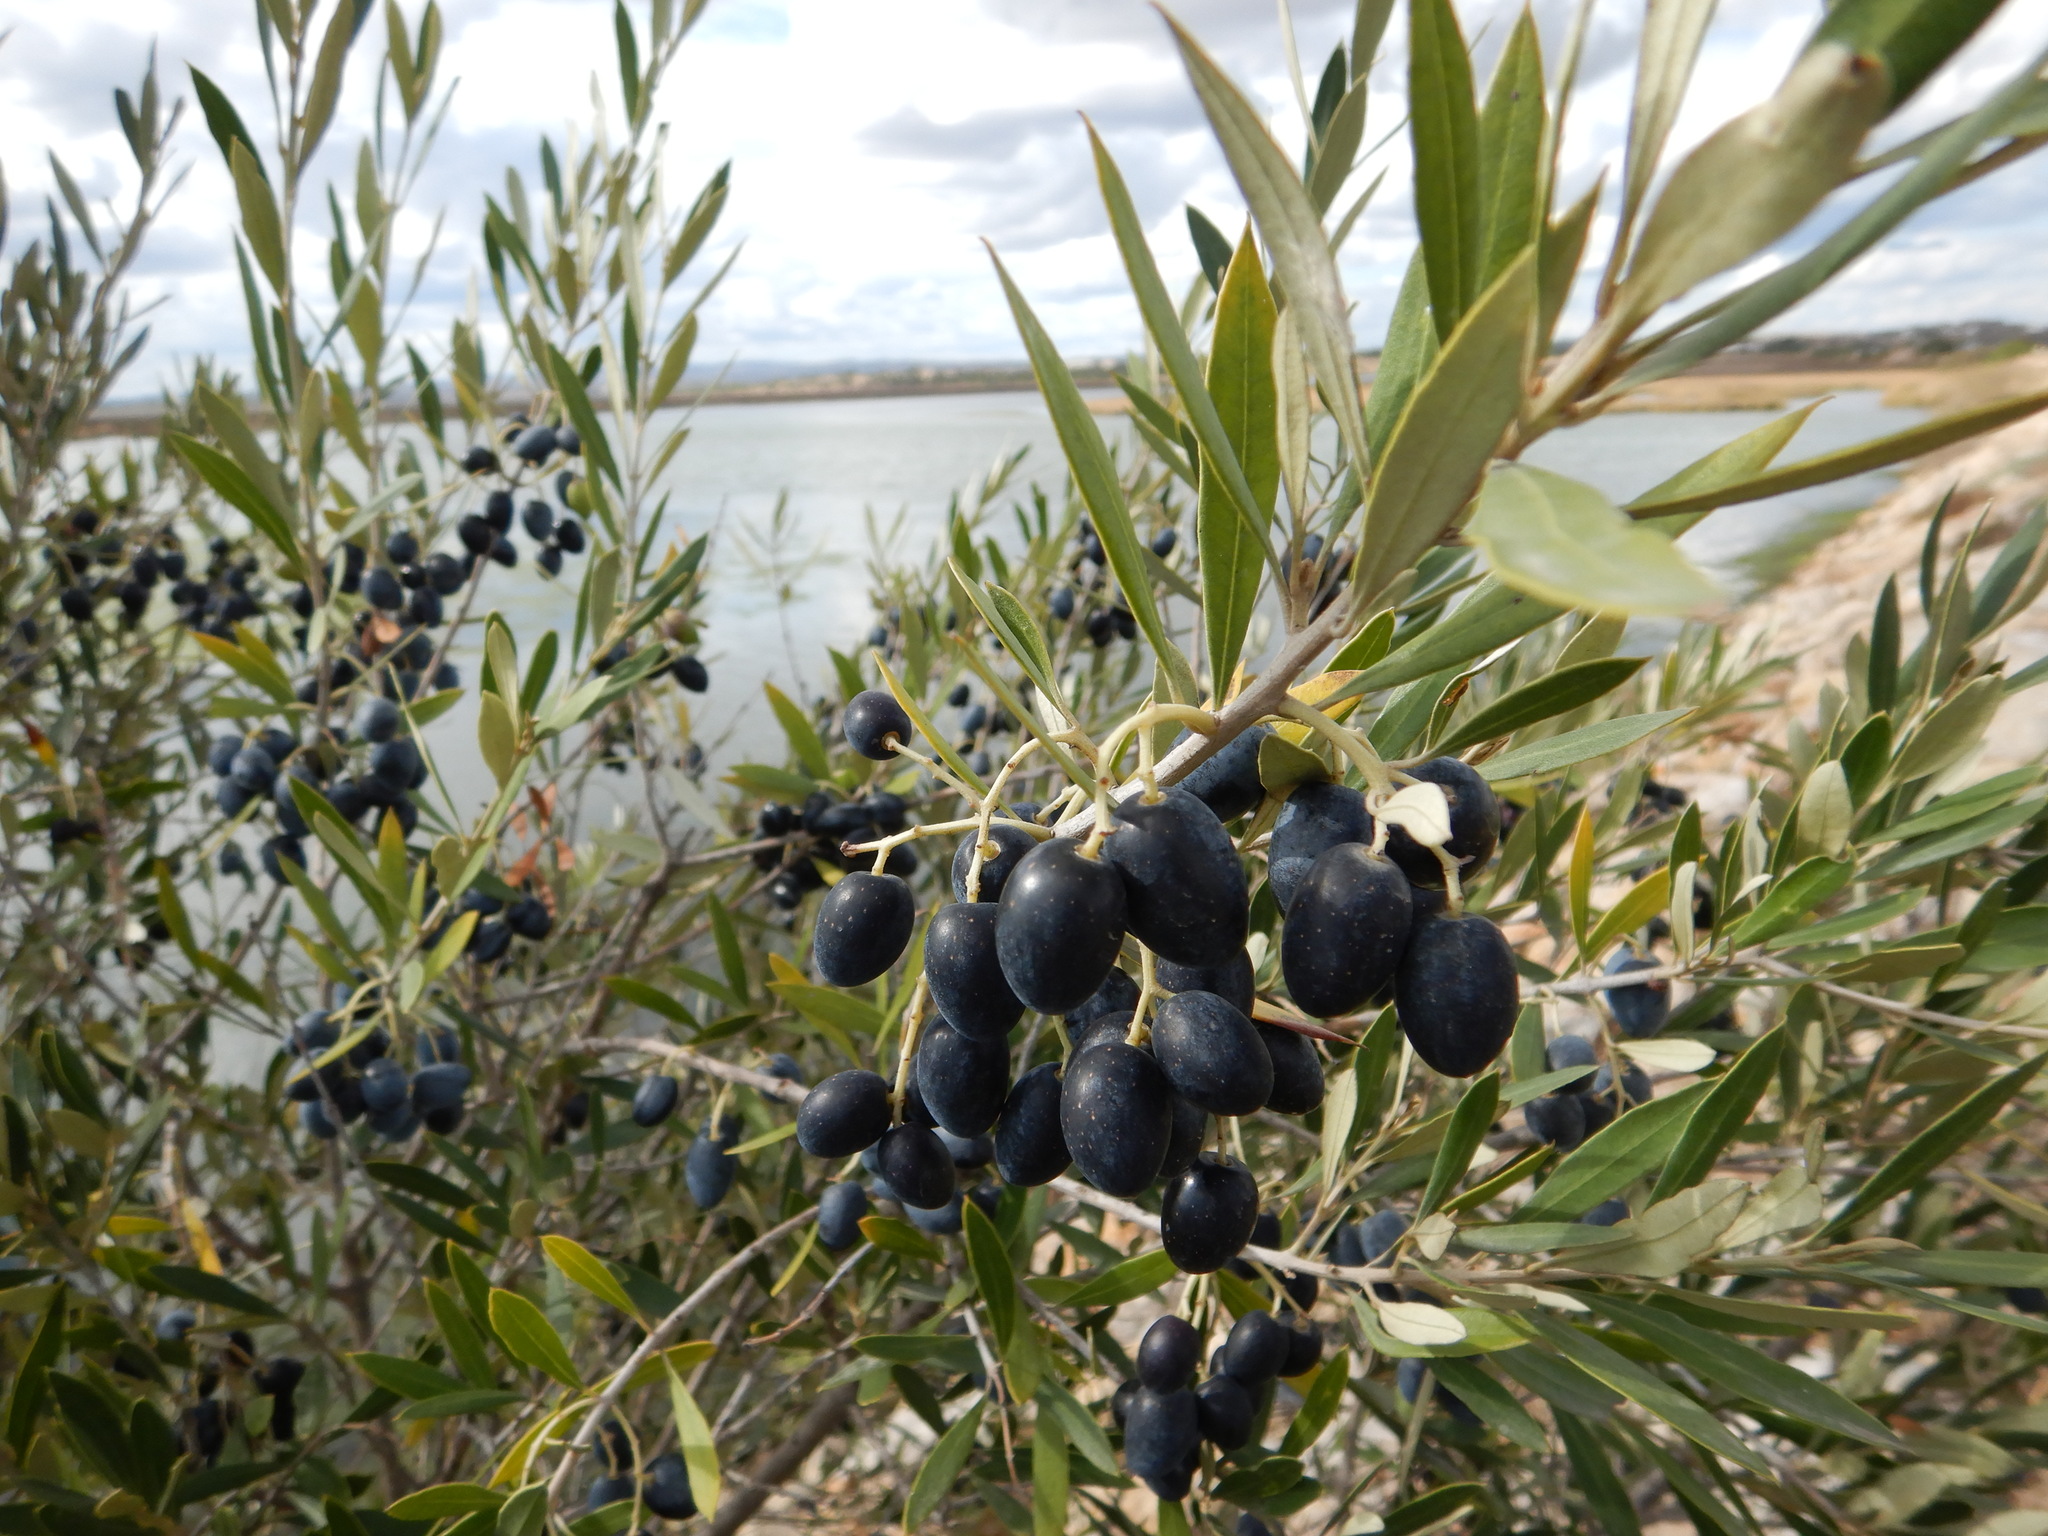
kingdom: Plantae
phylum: Tracheophyta
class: Magnoliopsida
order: Lamiales
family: Oleaceae
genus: Olea
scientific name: Olea europaea
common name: Olive
